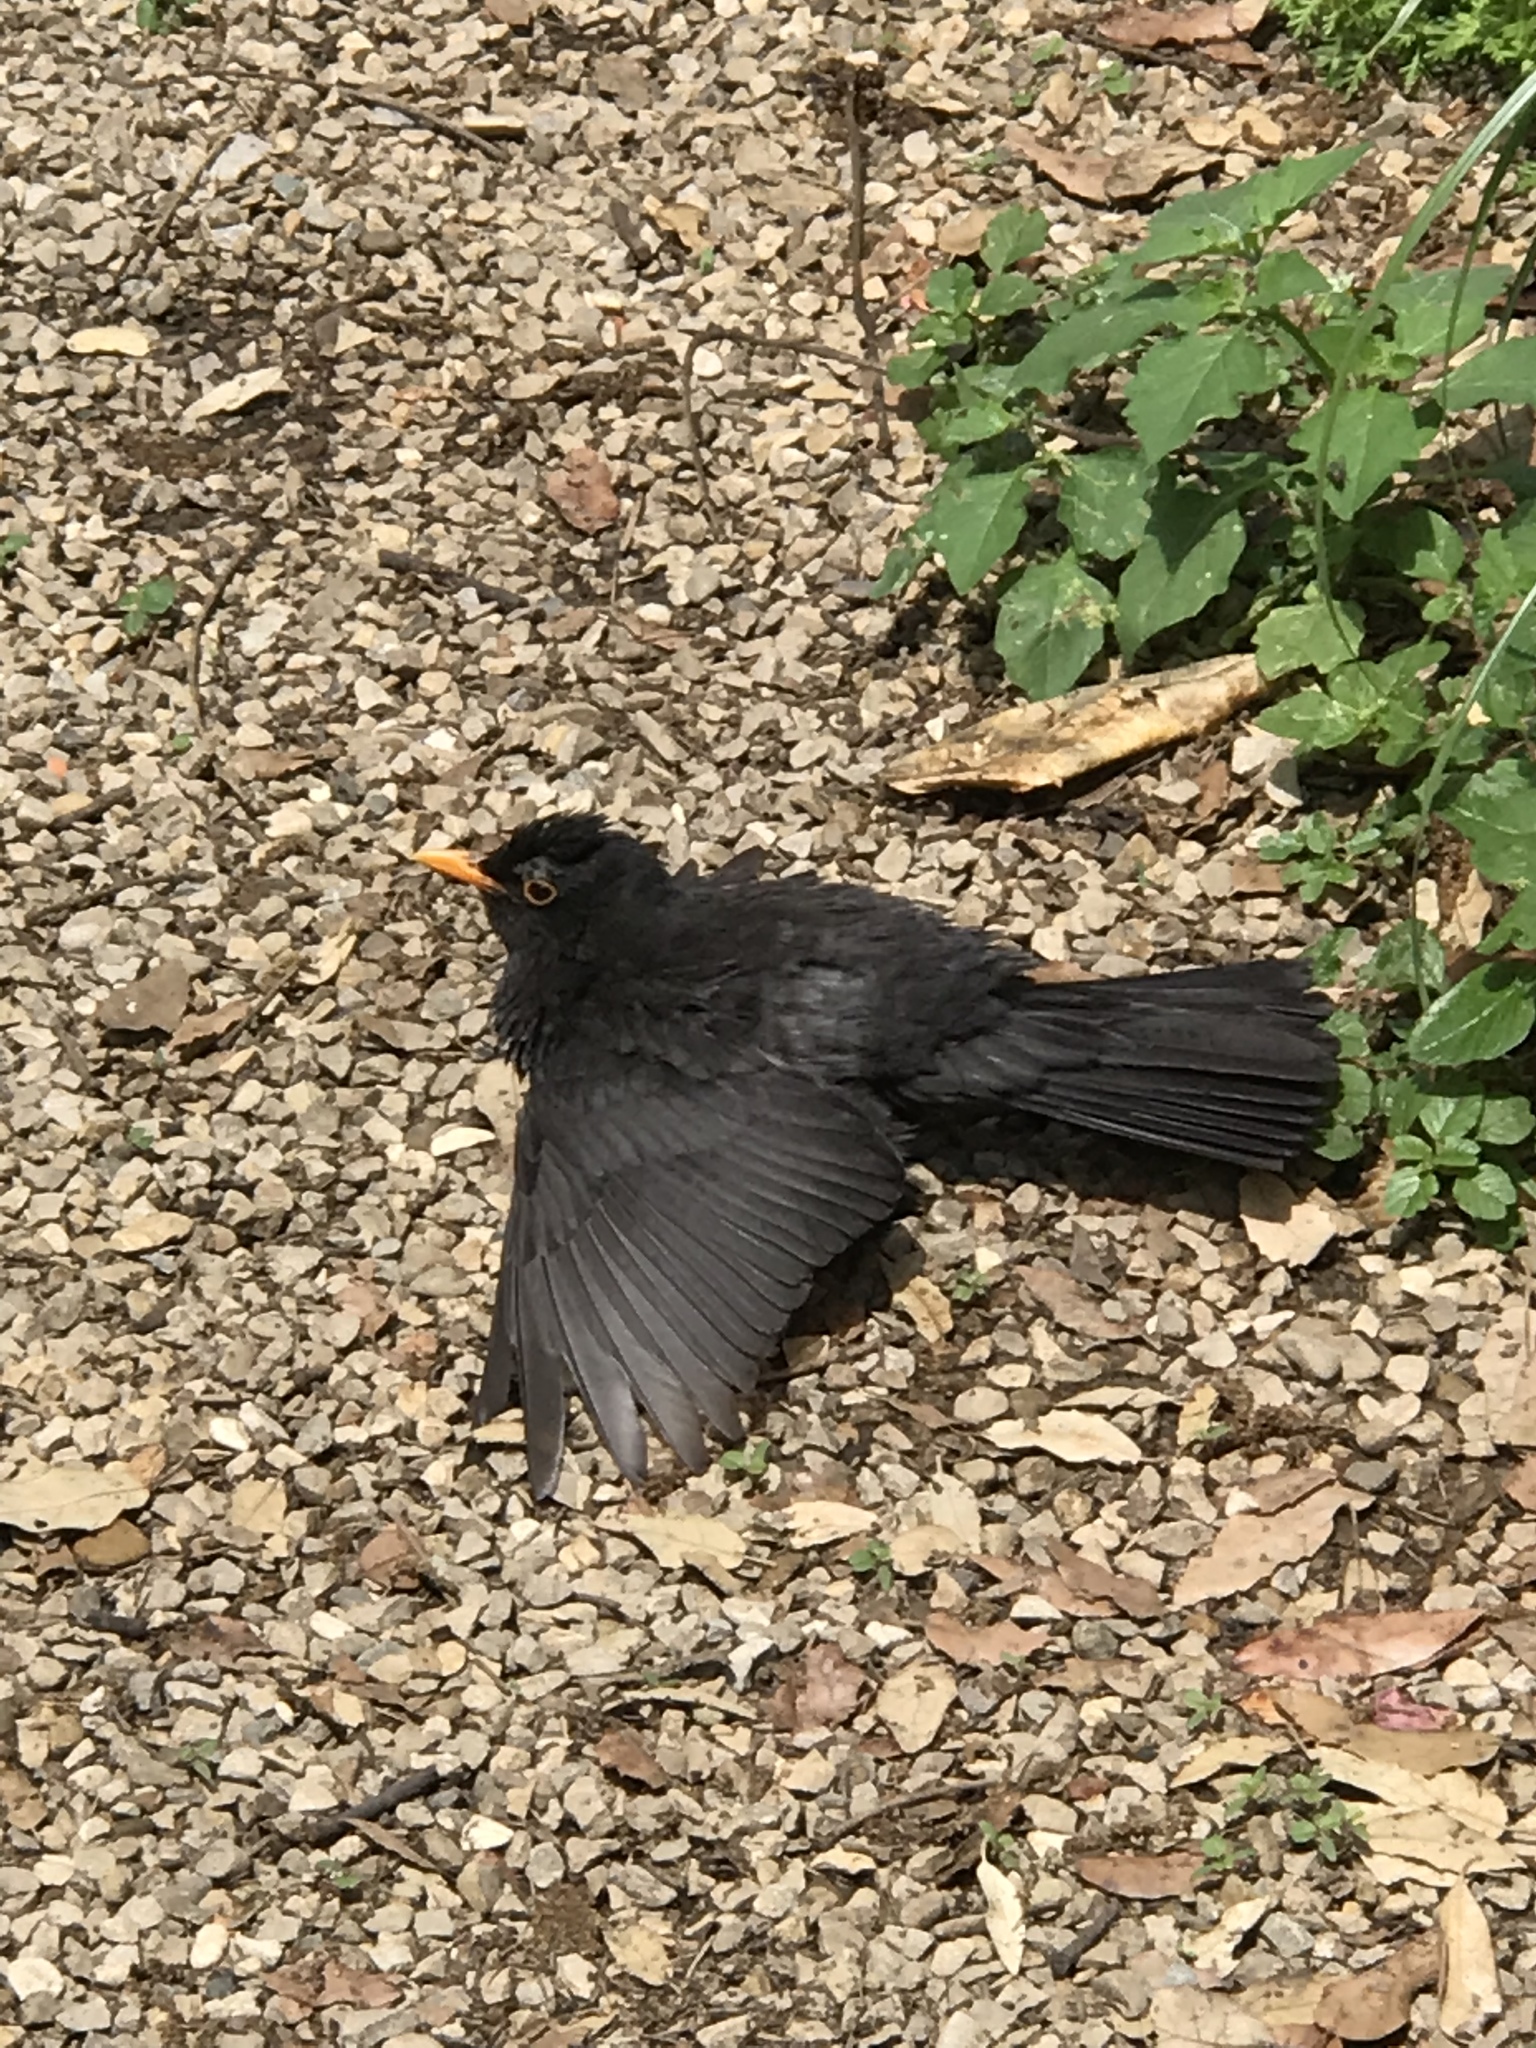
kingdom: Animalia
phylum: Chordata
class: Aves
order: Passeriformes
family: Turdidae
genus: Turdus
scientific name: Turdus merula
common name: Common blackbird
